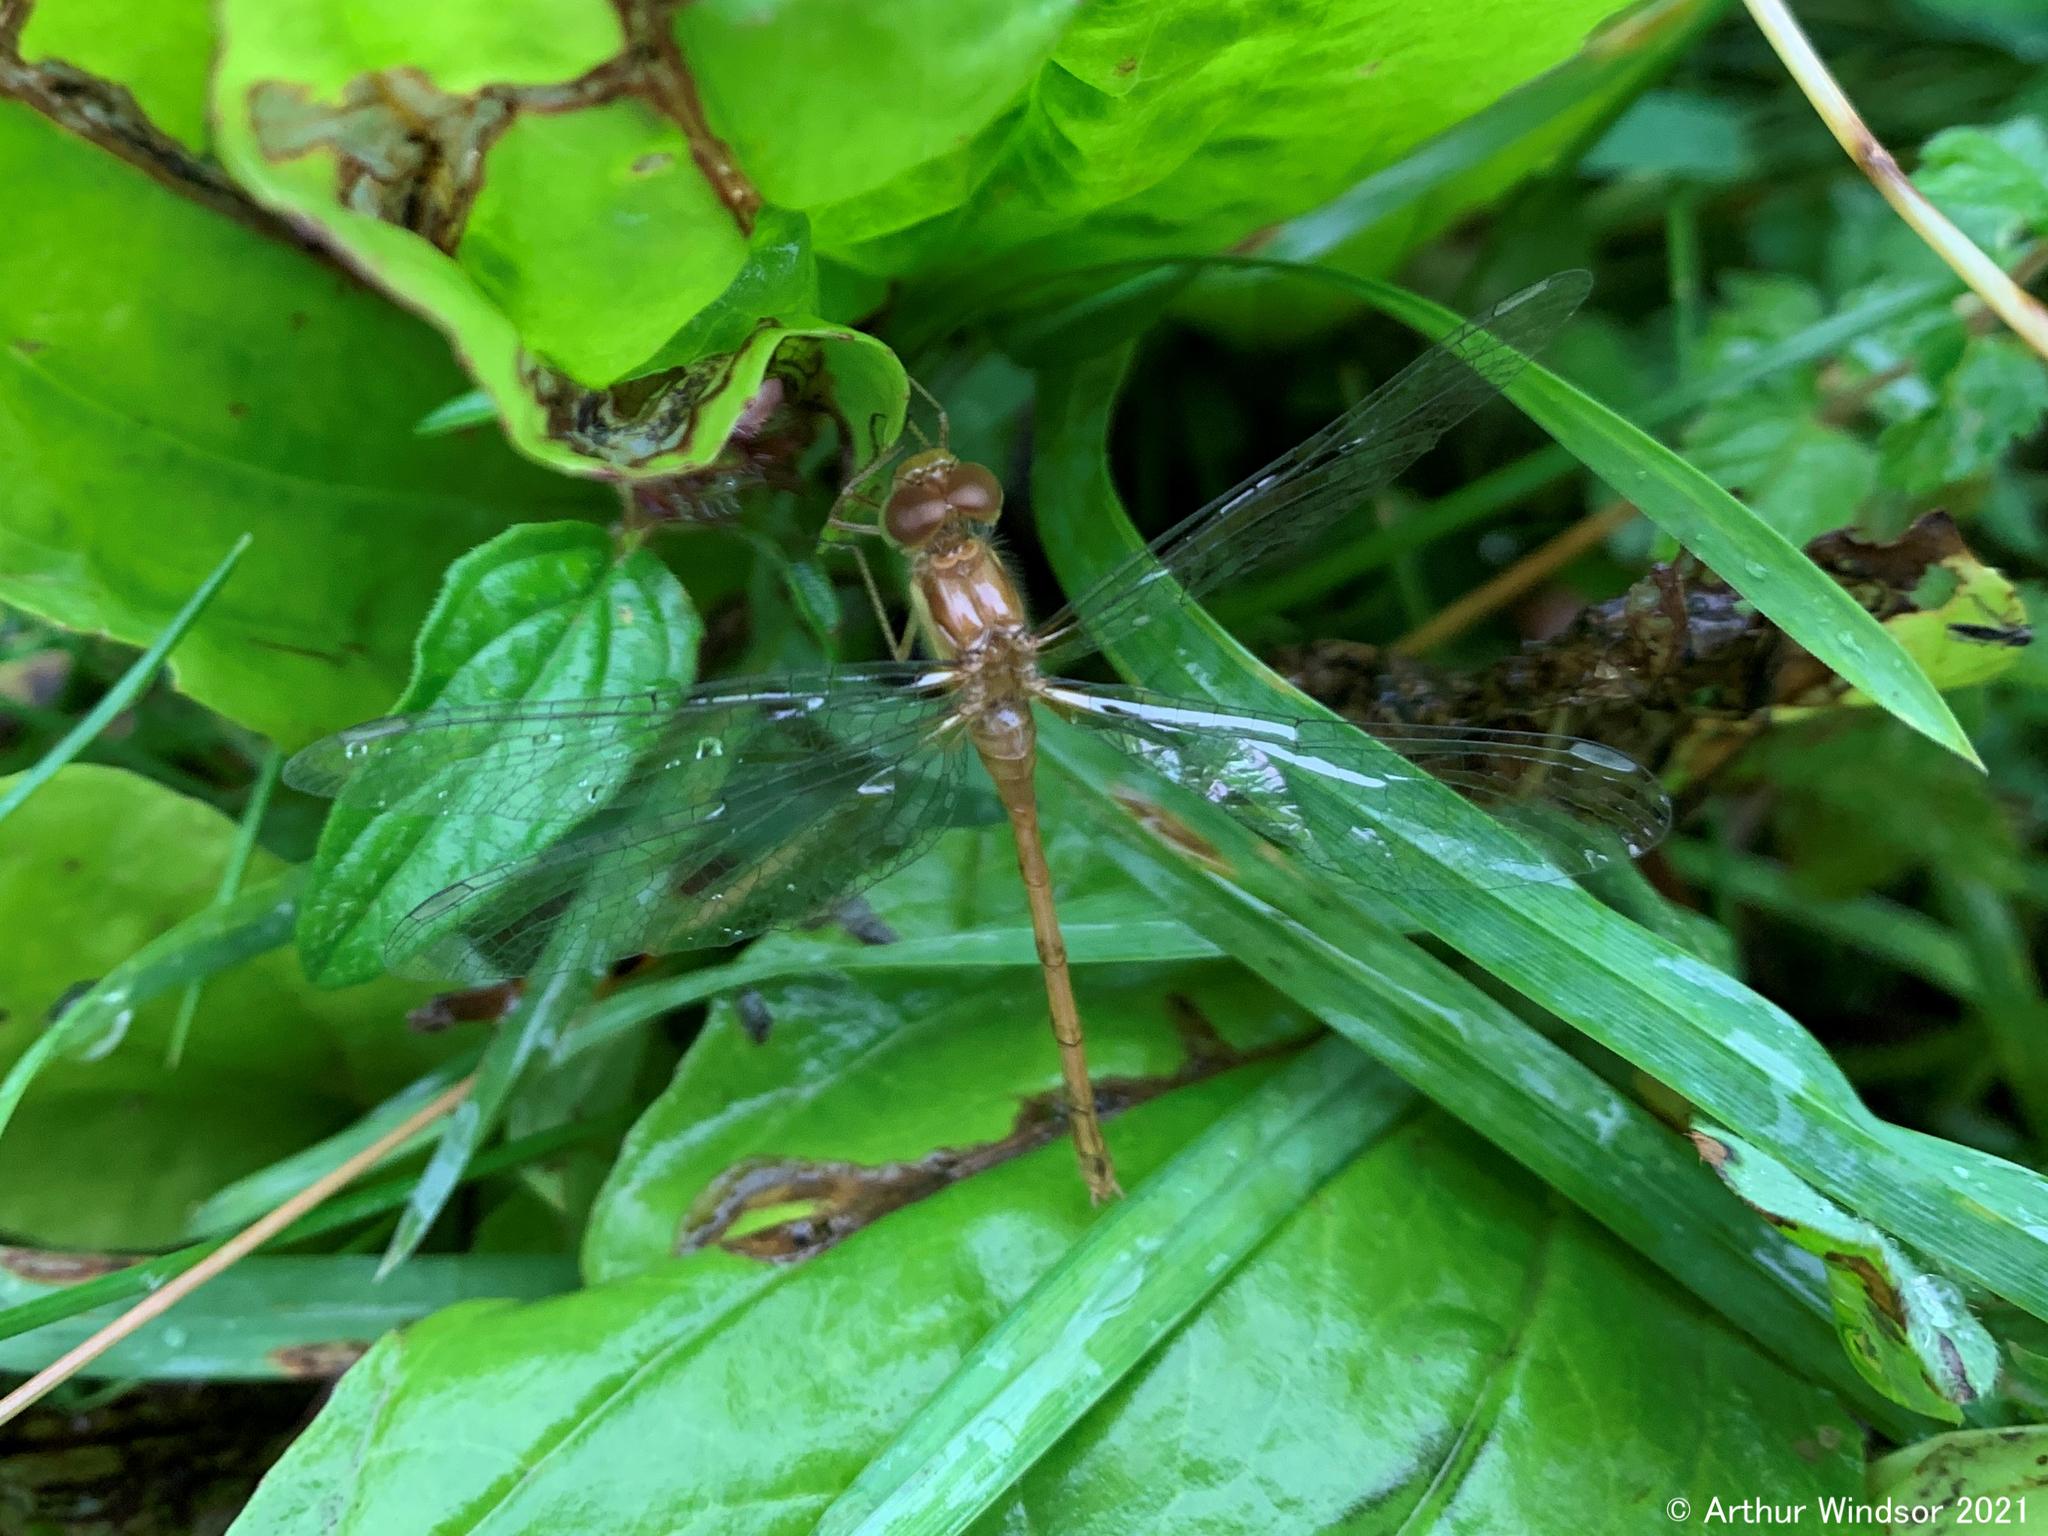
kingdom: Animalia
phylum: Arthropoda
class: Insecta
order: Odonata
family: Libellulidae
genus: Sympetrum
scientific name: Sympetrum vicinum
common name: Autumn meadowhawk
